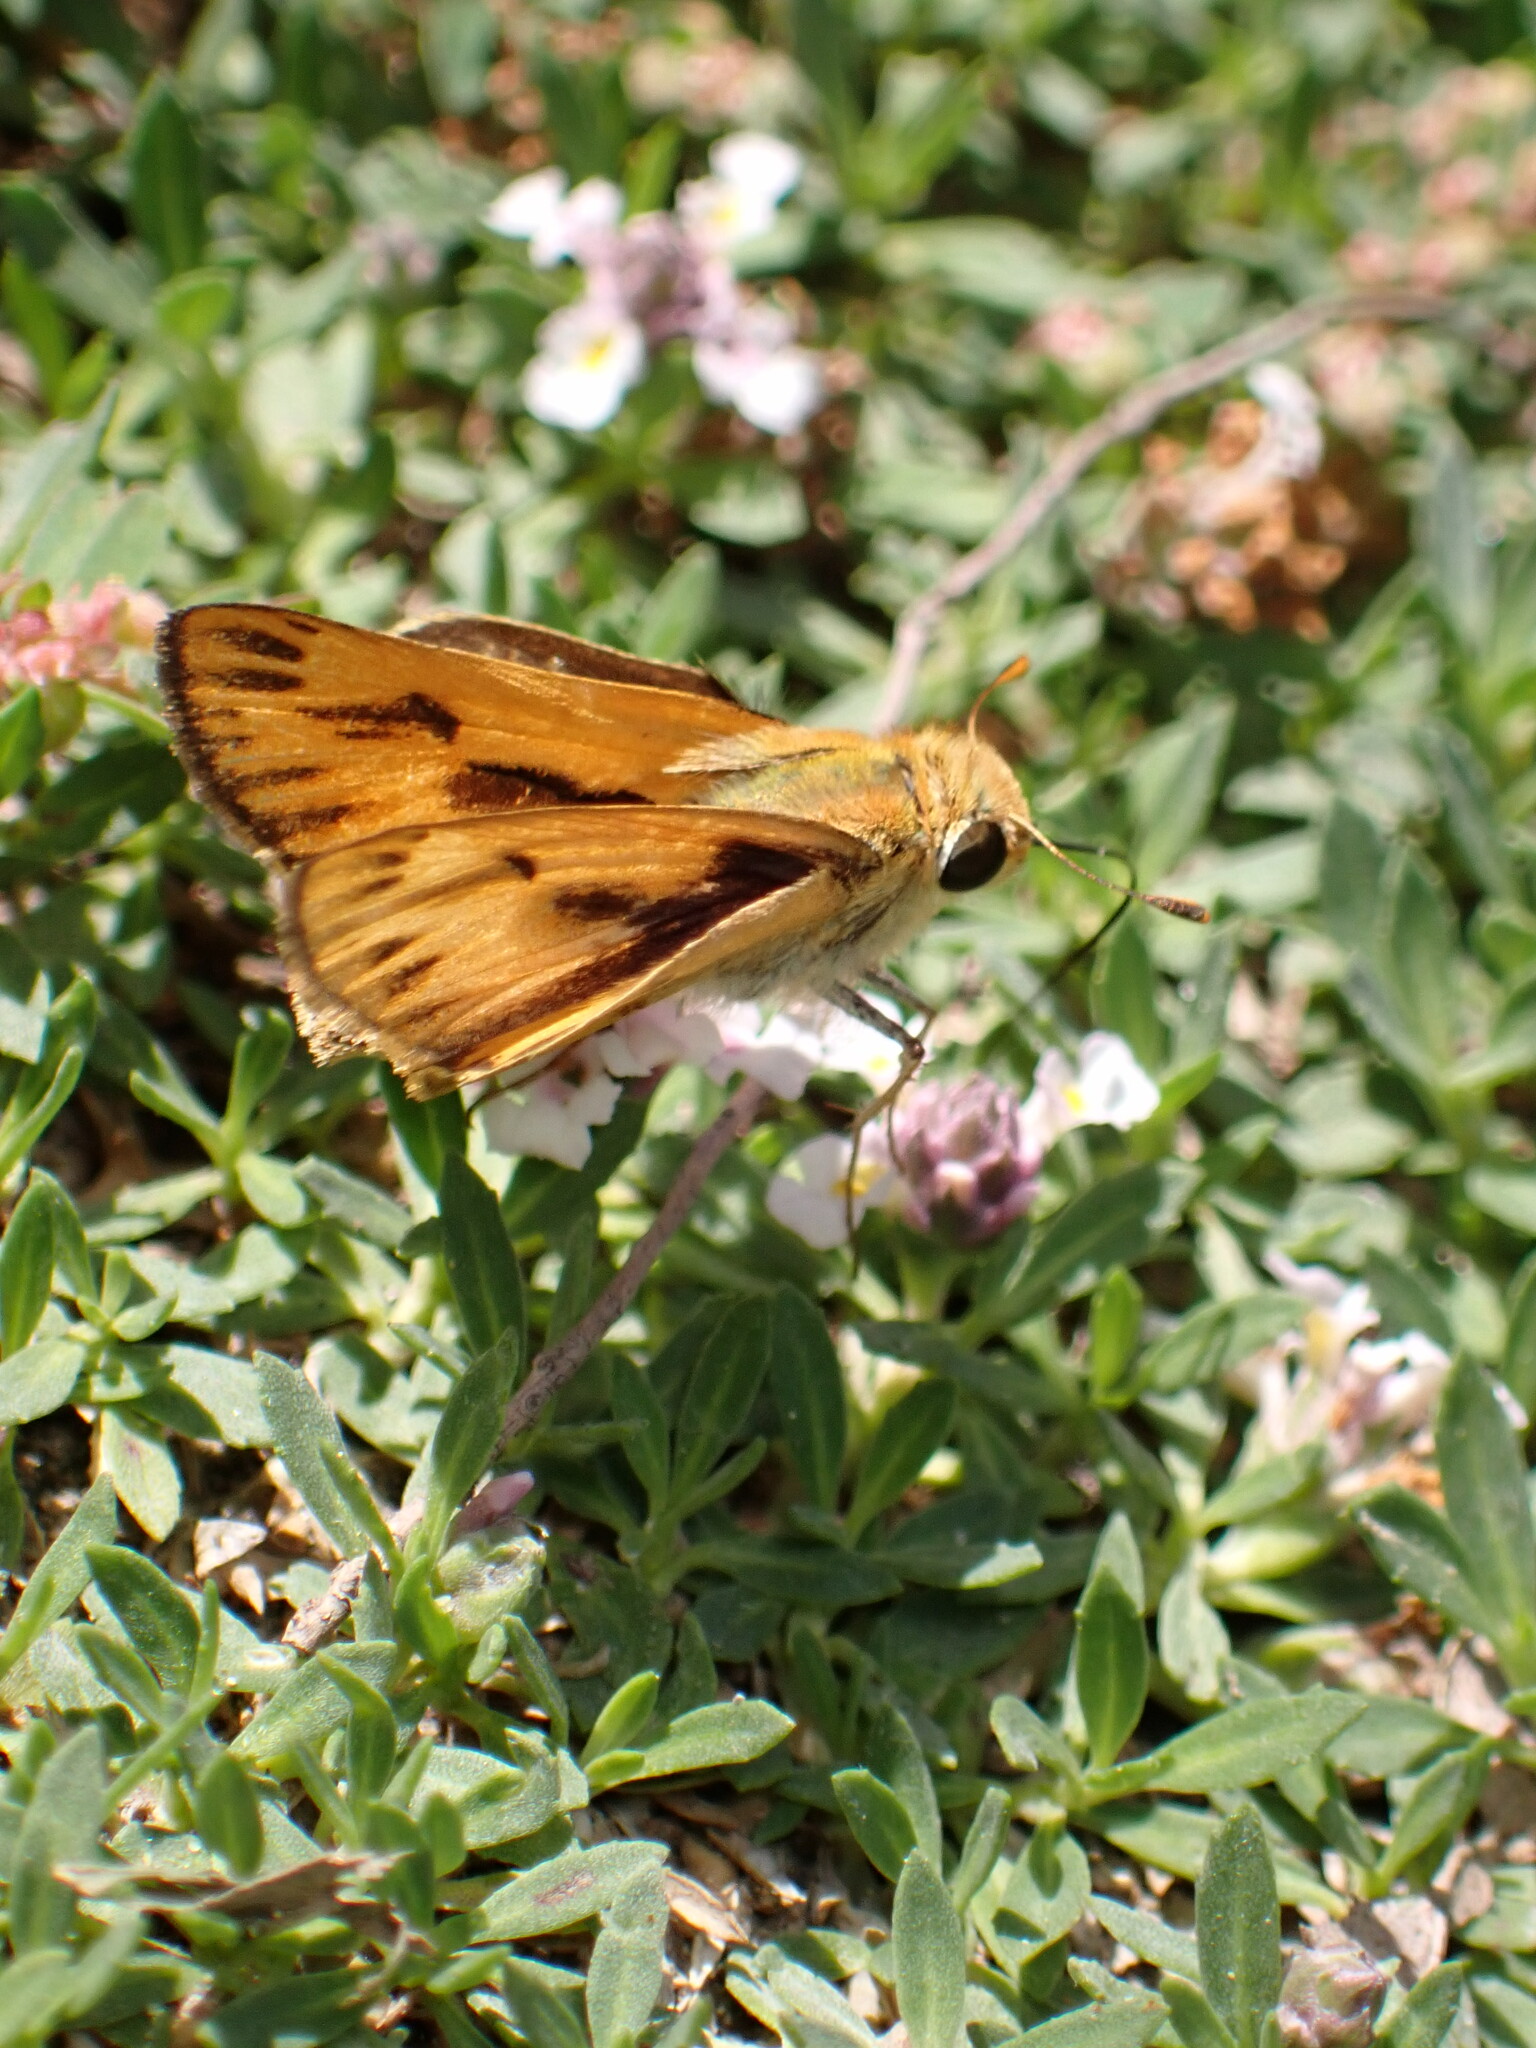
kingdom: Animalia
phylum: Arthropoda
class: Insecta
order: Lepidoptera
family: Hesperiidae
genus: Hylephila
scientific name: Hylephila phyleus
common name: Fiery skipper
